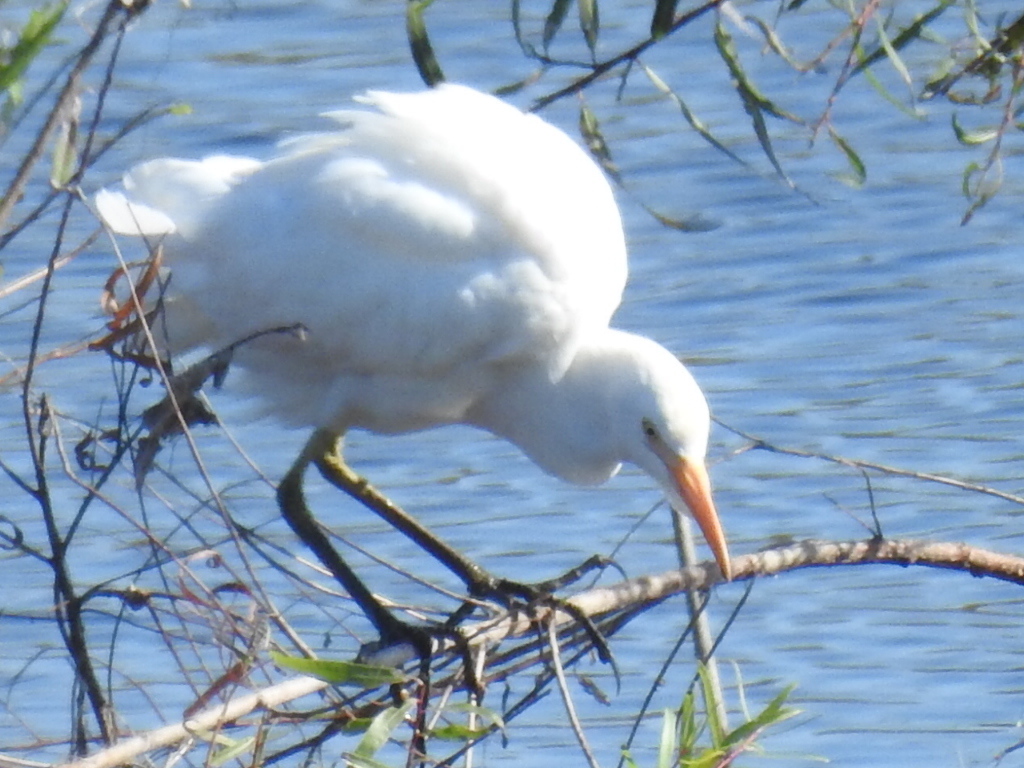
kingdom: Animalia
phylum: Chordata
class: Aves
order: Pelecaniformes
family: Ardeidae
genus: Bubulcus
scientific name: Bubulcus ibis
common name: Cattle egret
